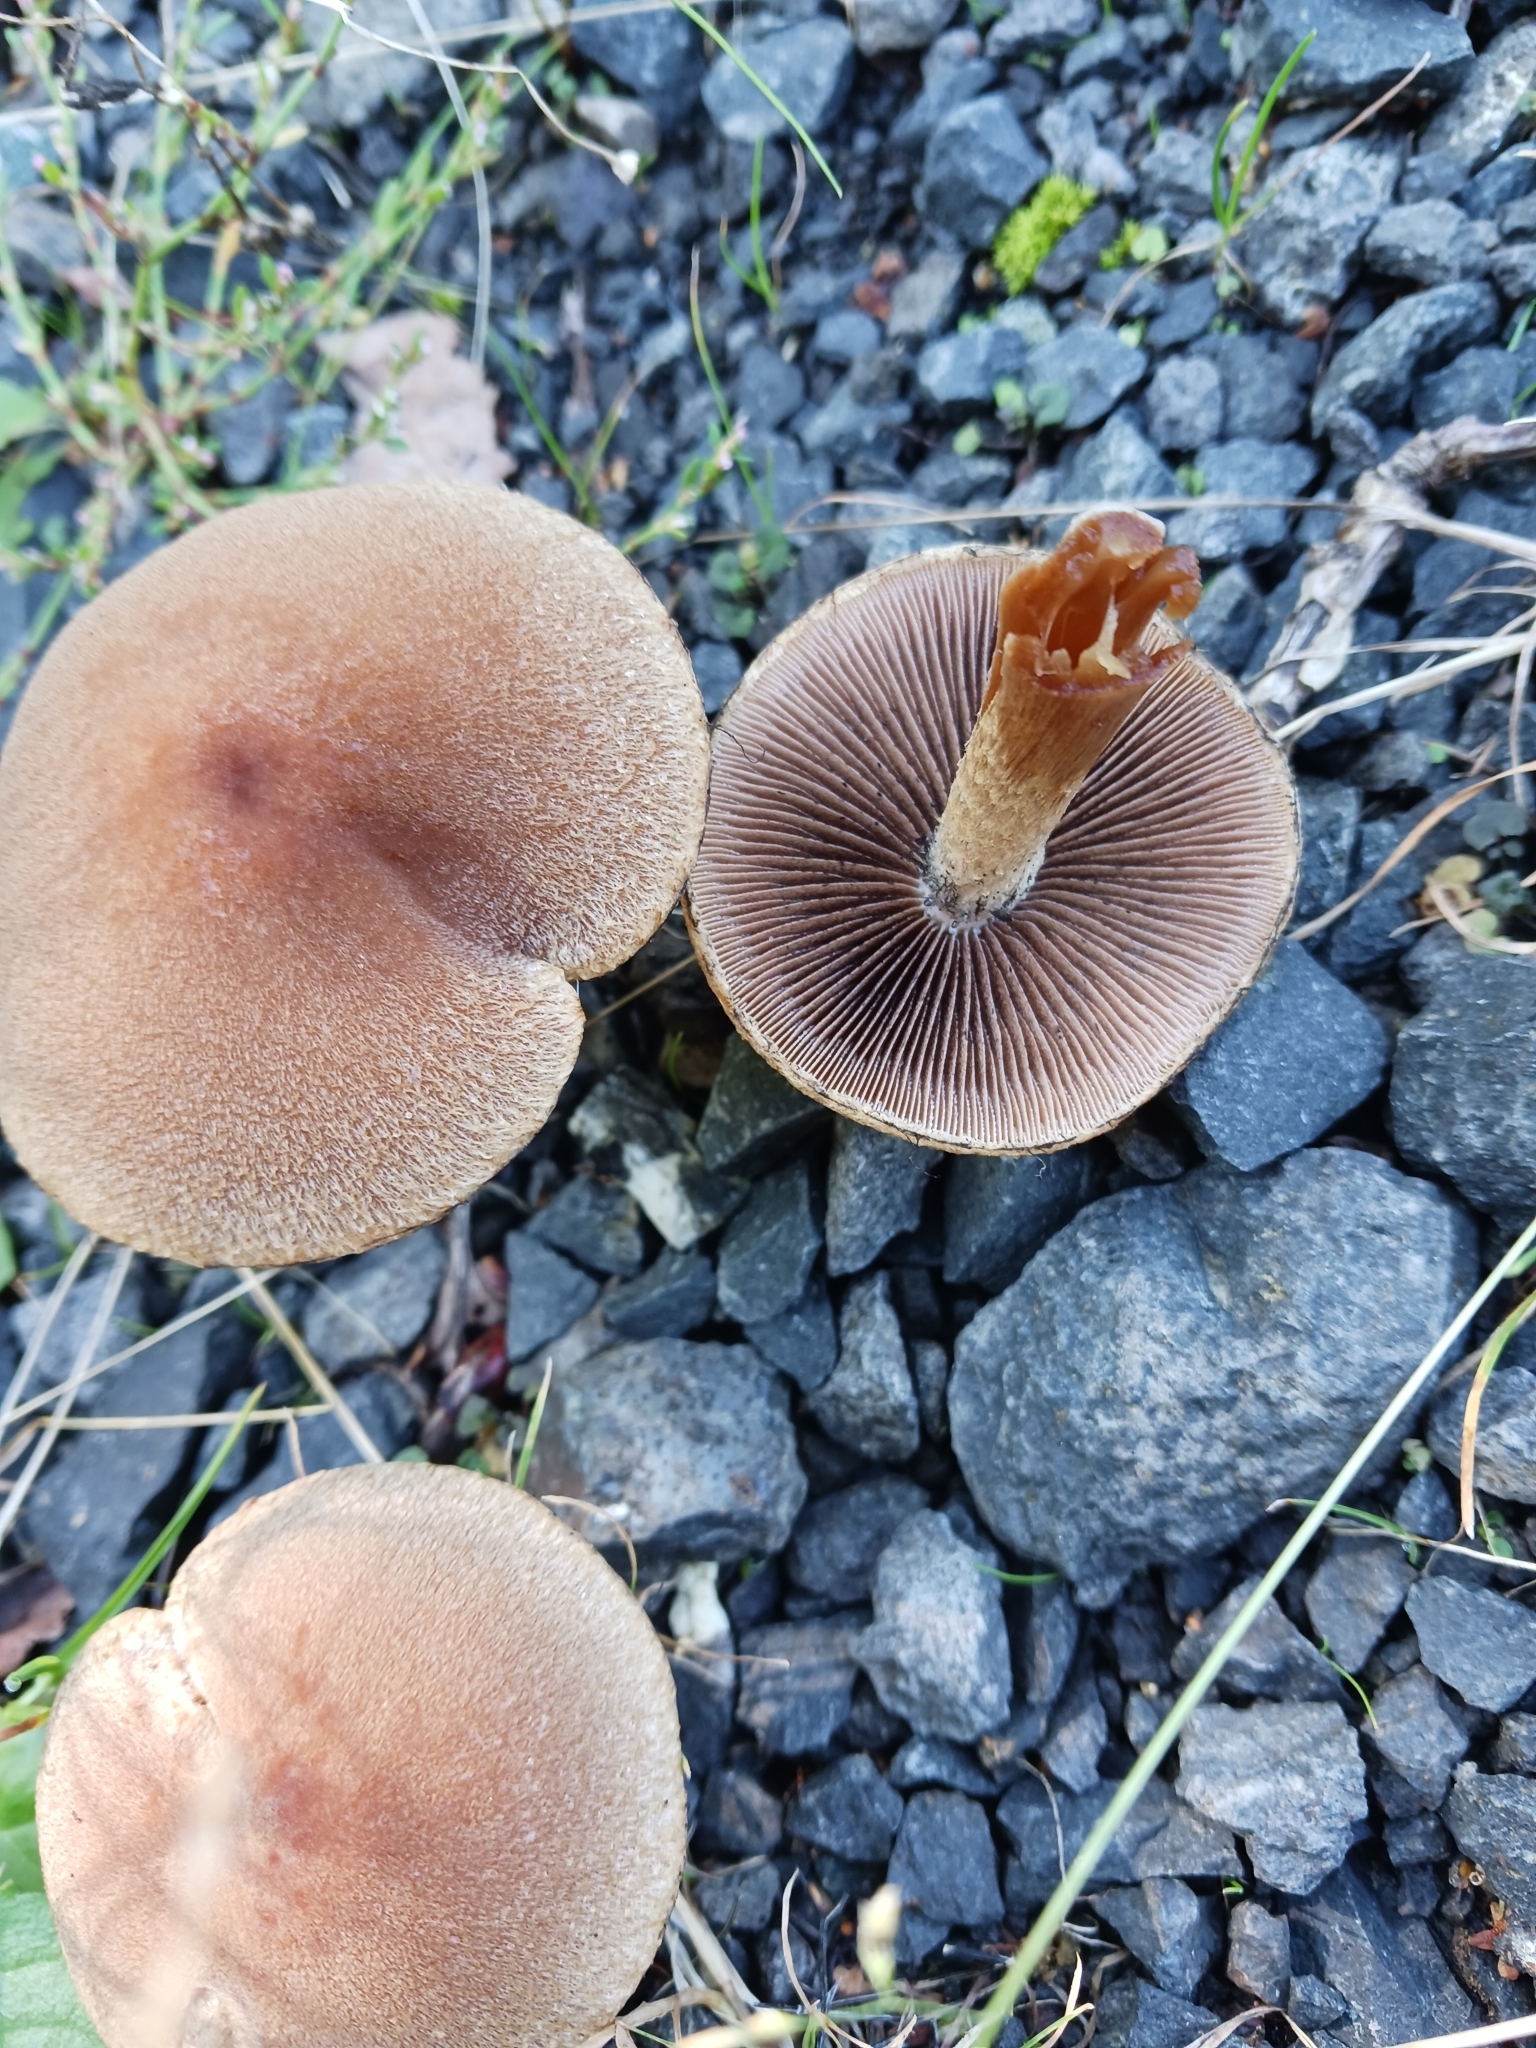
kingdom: Fungi
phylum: Basidiomycota
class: Agaricomycetes
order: Agaricales
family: Psathyrellaceae
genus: Lacrymaria
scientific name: Lacrymaria lacrymabunda
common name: Weeping widow
